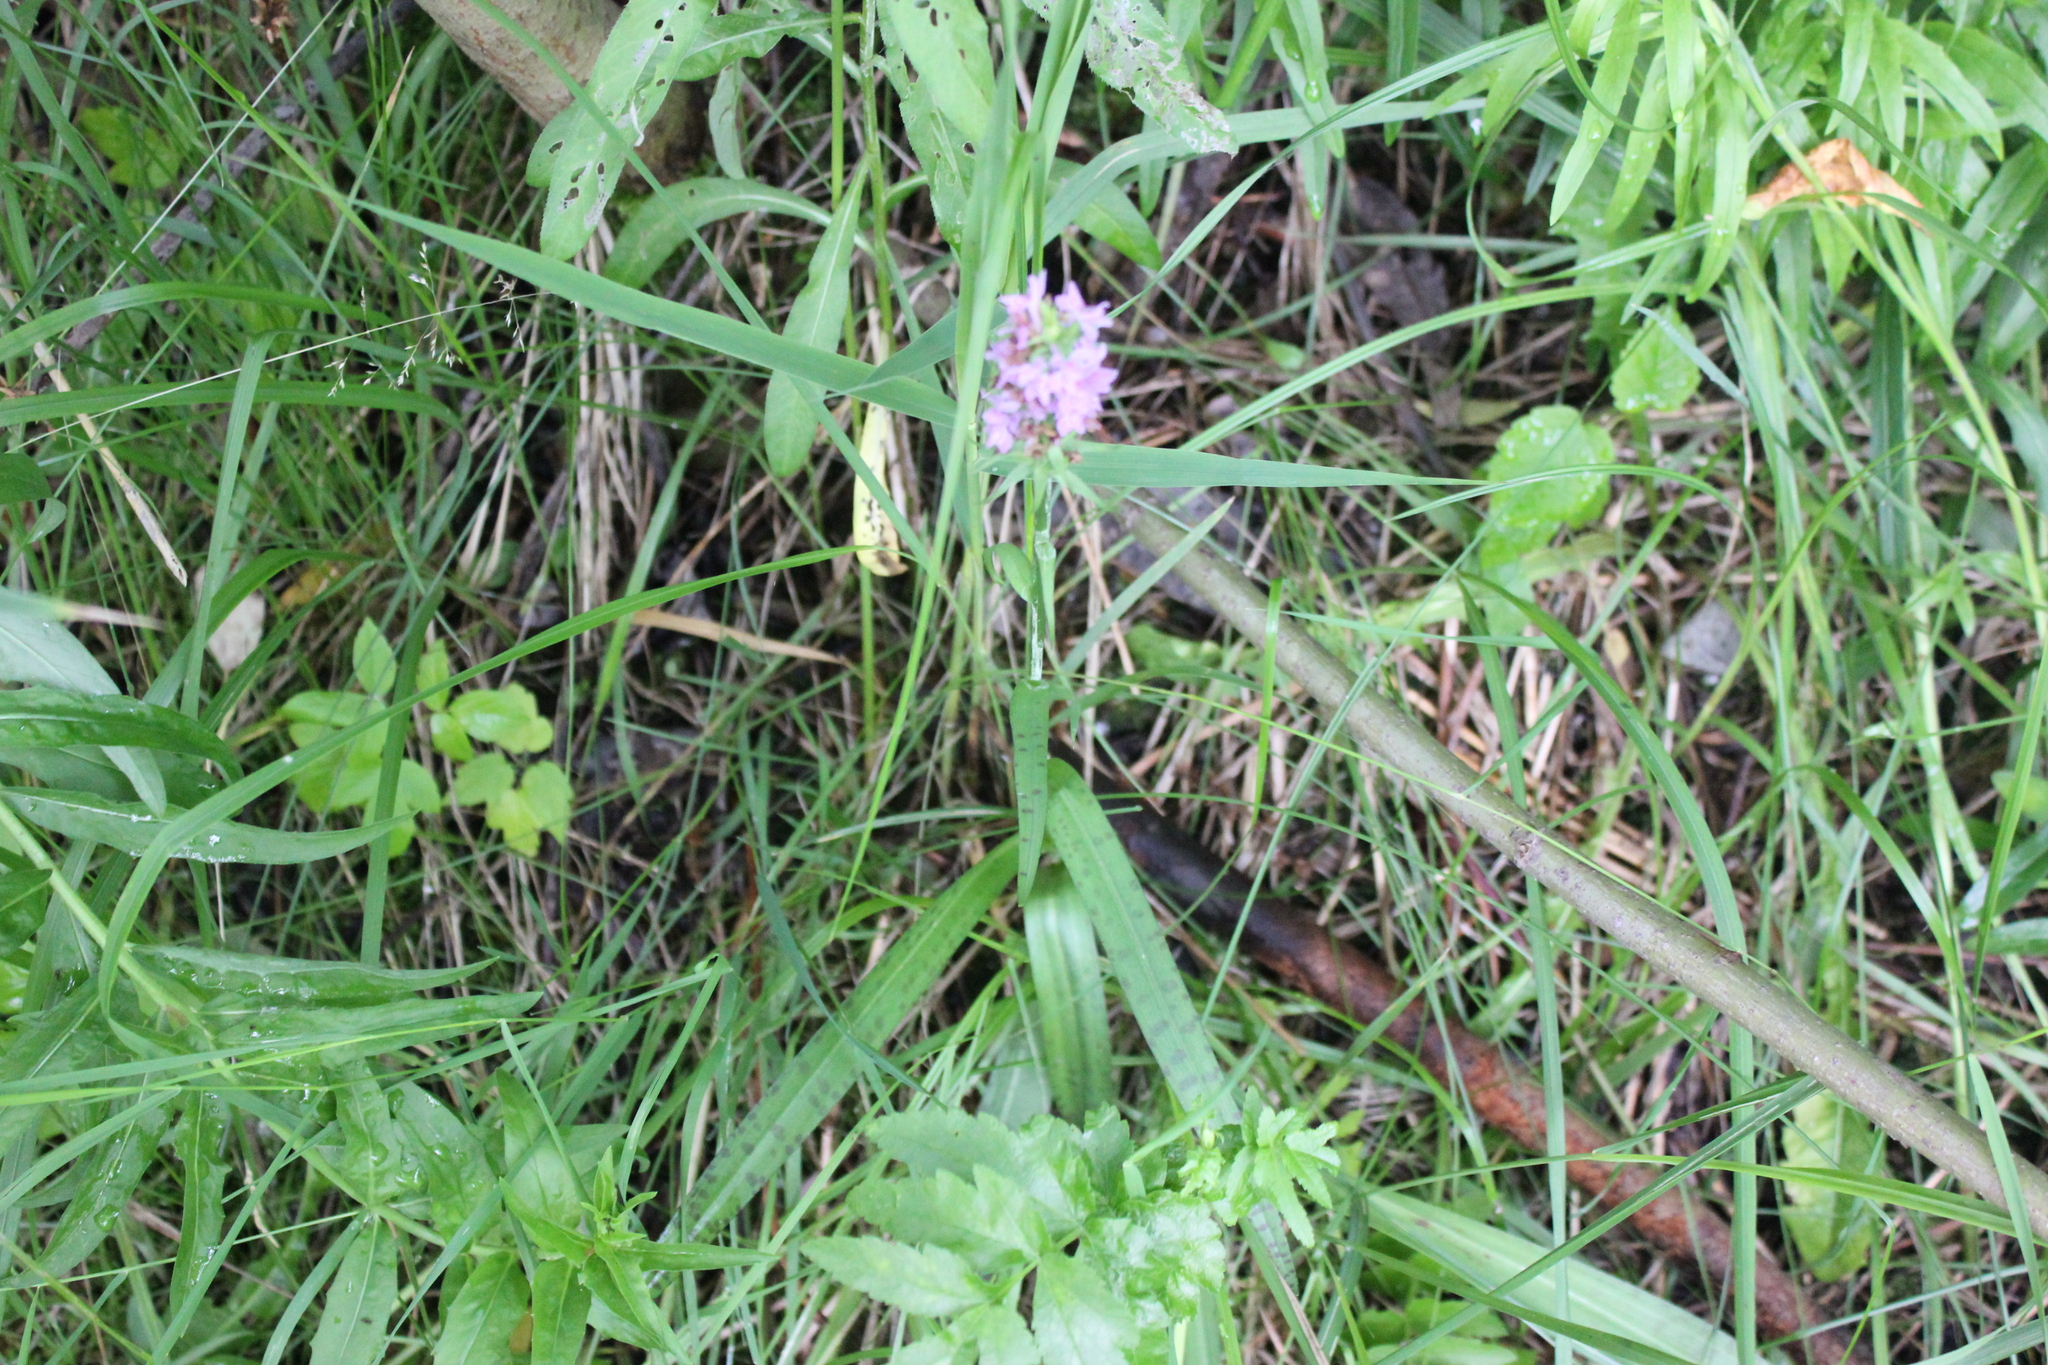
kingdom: Plantae
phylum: Tracheophyta
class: Liliopsida
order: Asparagales
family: Orchidaceae
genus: Dactylorhiza
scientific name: Dactylorhiza majalis
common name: Marsh orchid
